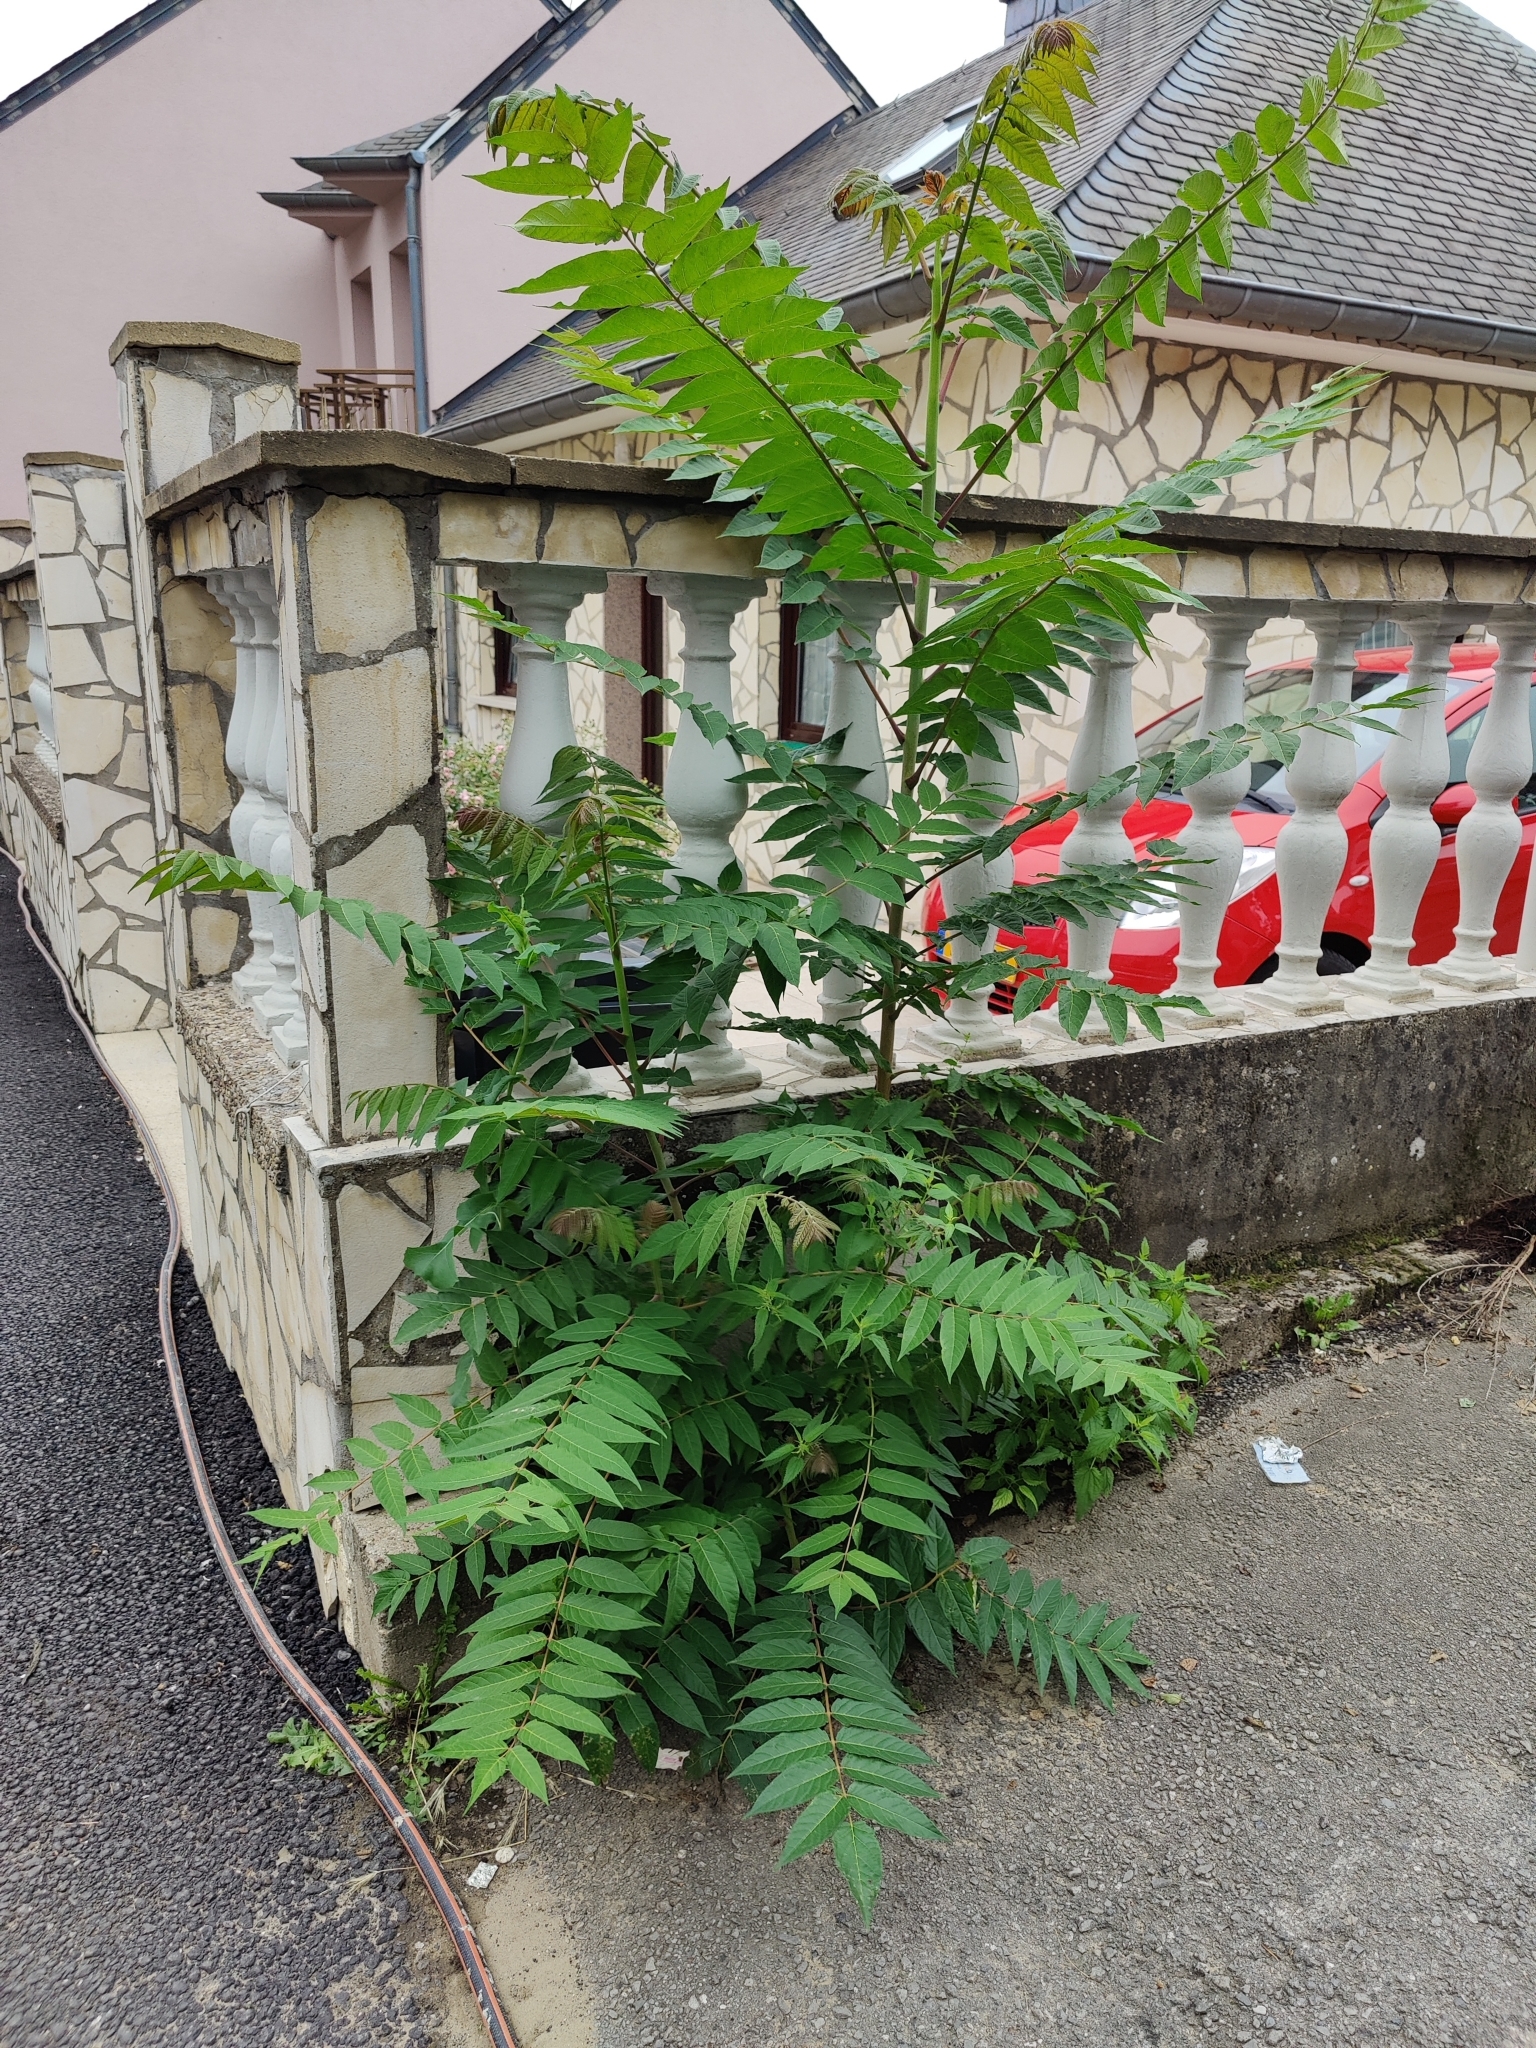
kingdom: Plantae
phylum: Tracheophyta
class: Magnoliopsida
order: Sapindales
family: Simaroubaceae
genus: Ailanthus
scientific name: Ailanthus altissima
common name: Tree-of-heaven
